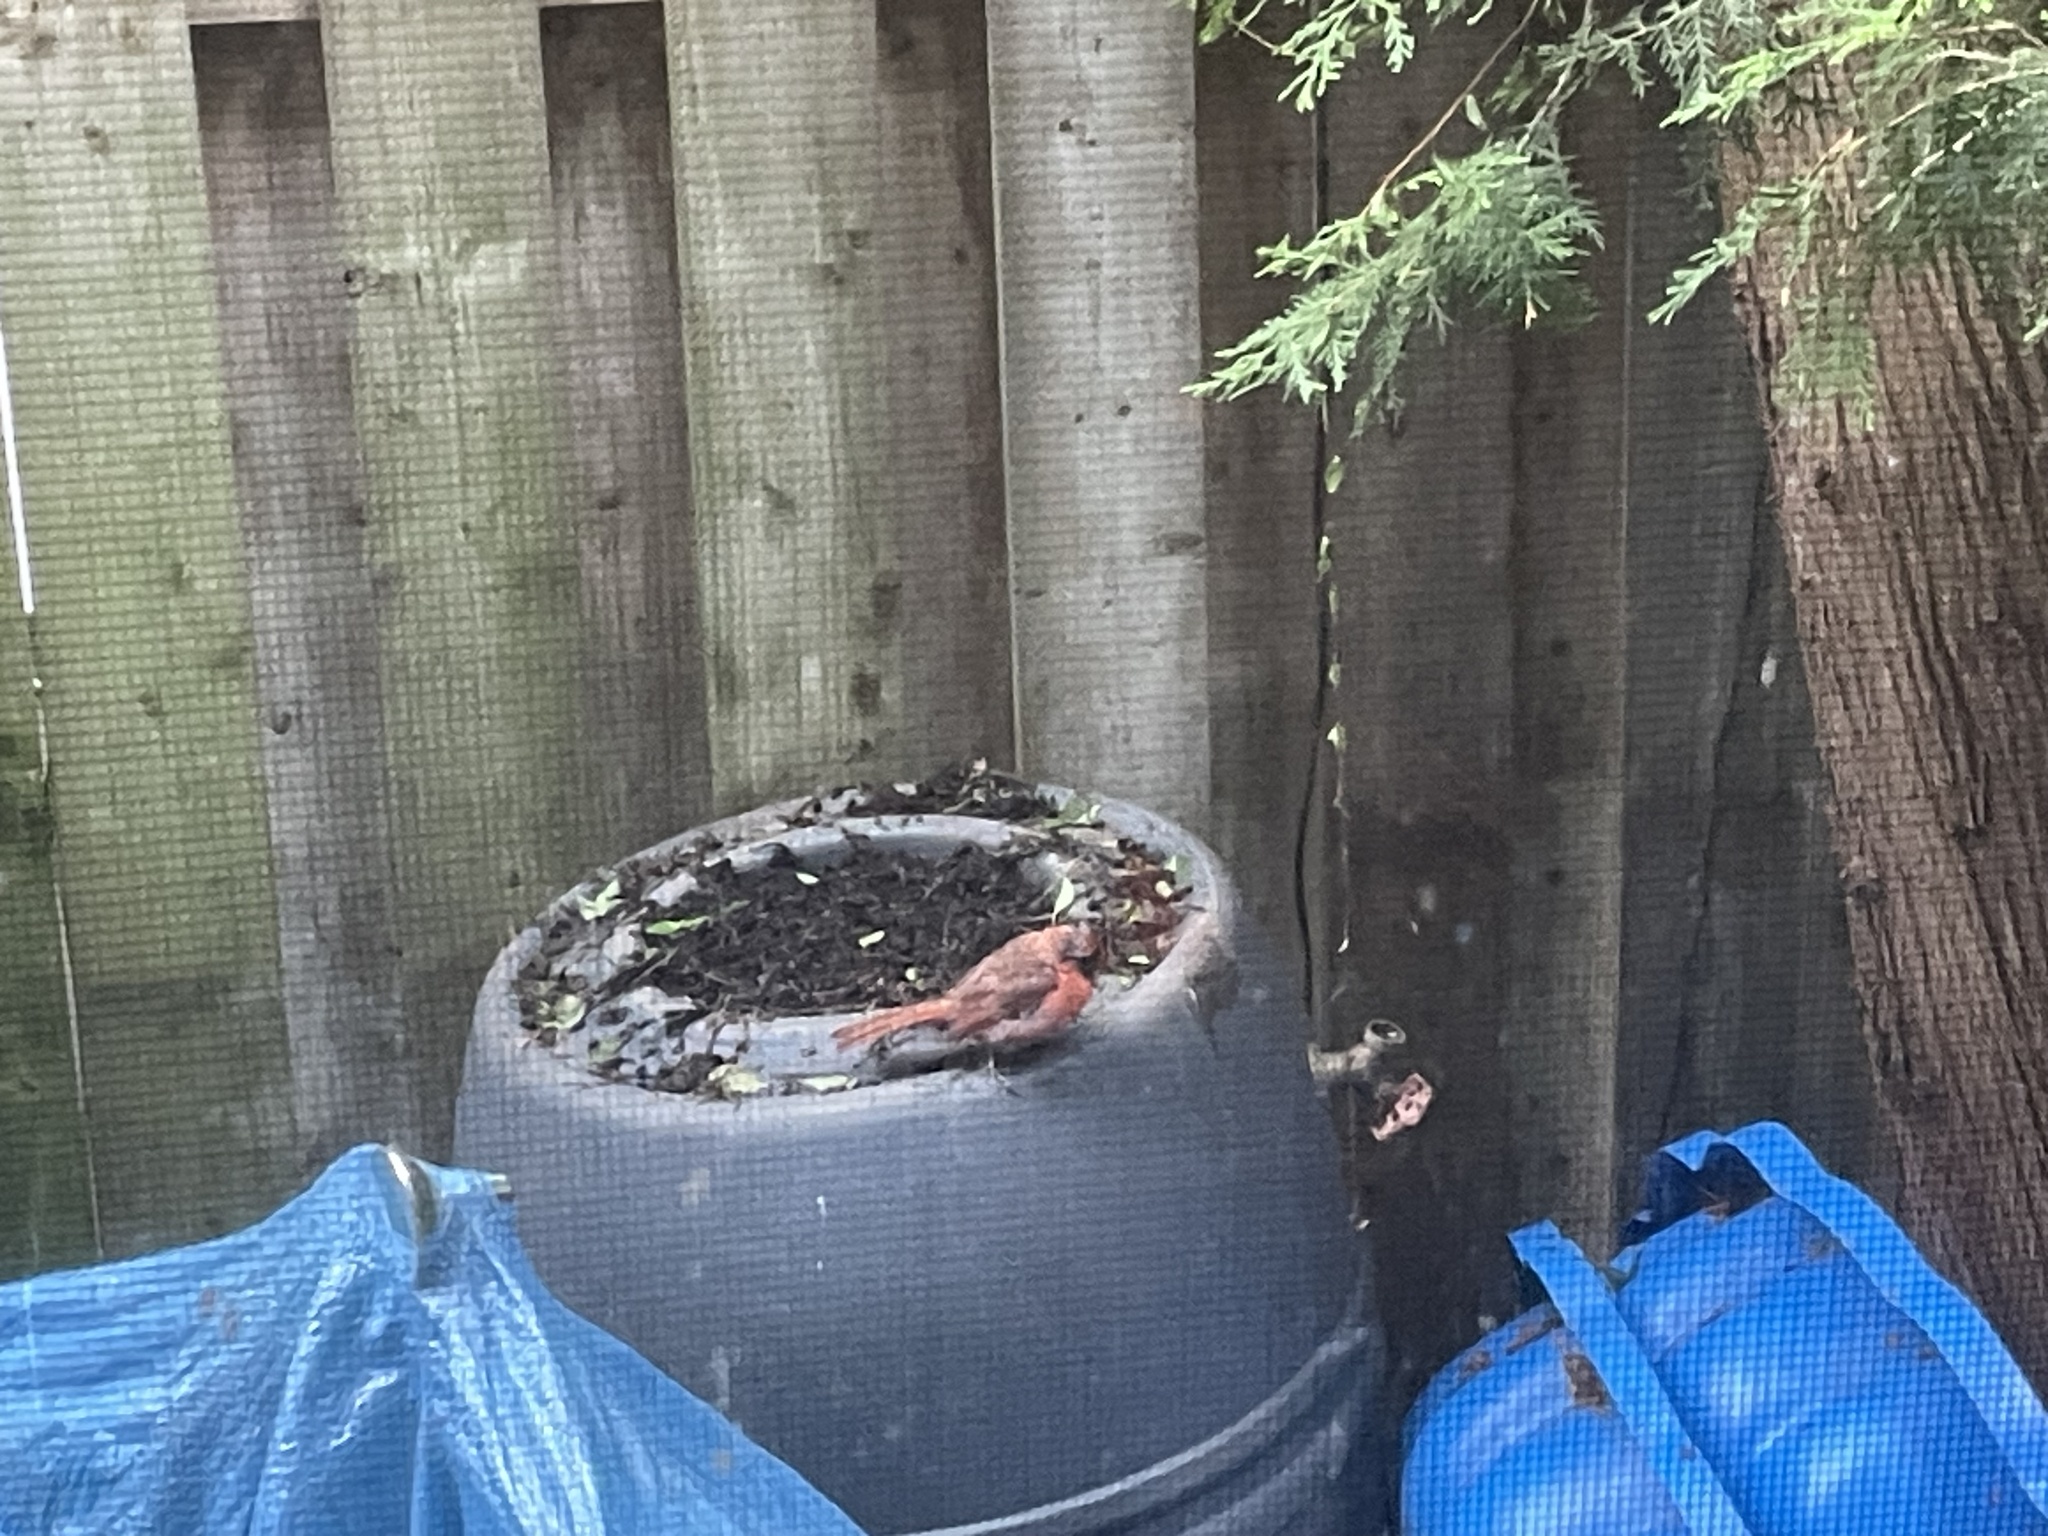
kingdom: Animalia
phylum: Chordata
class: Aves
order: Passeriformes
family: Cardinalidae
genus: Cardinalis
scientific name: Cardinalis cardinalis
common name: Northern cardinal
